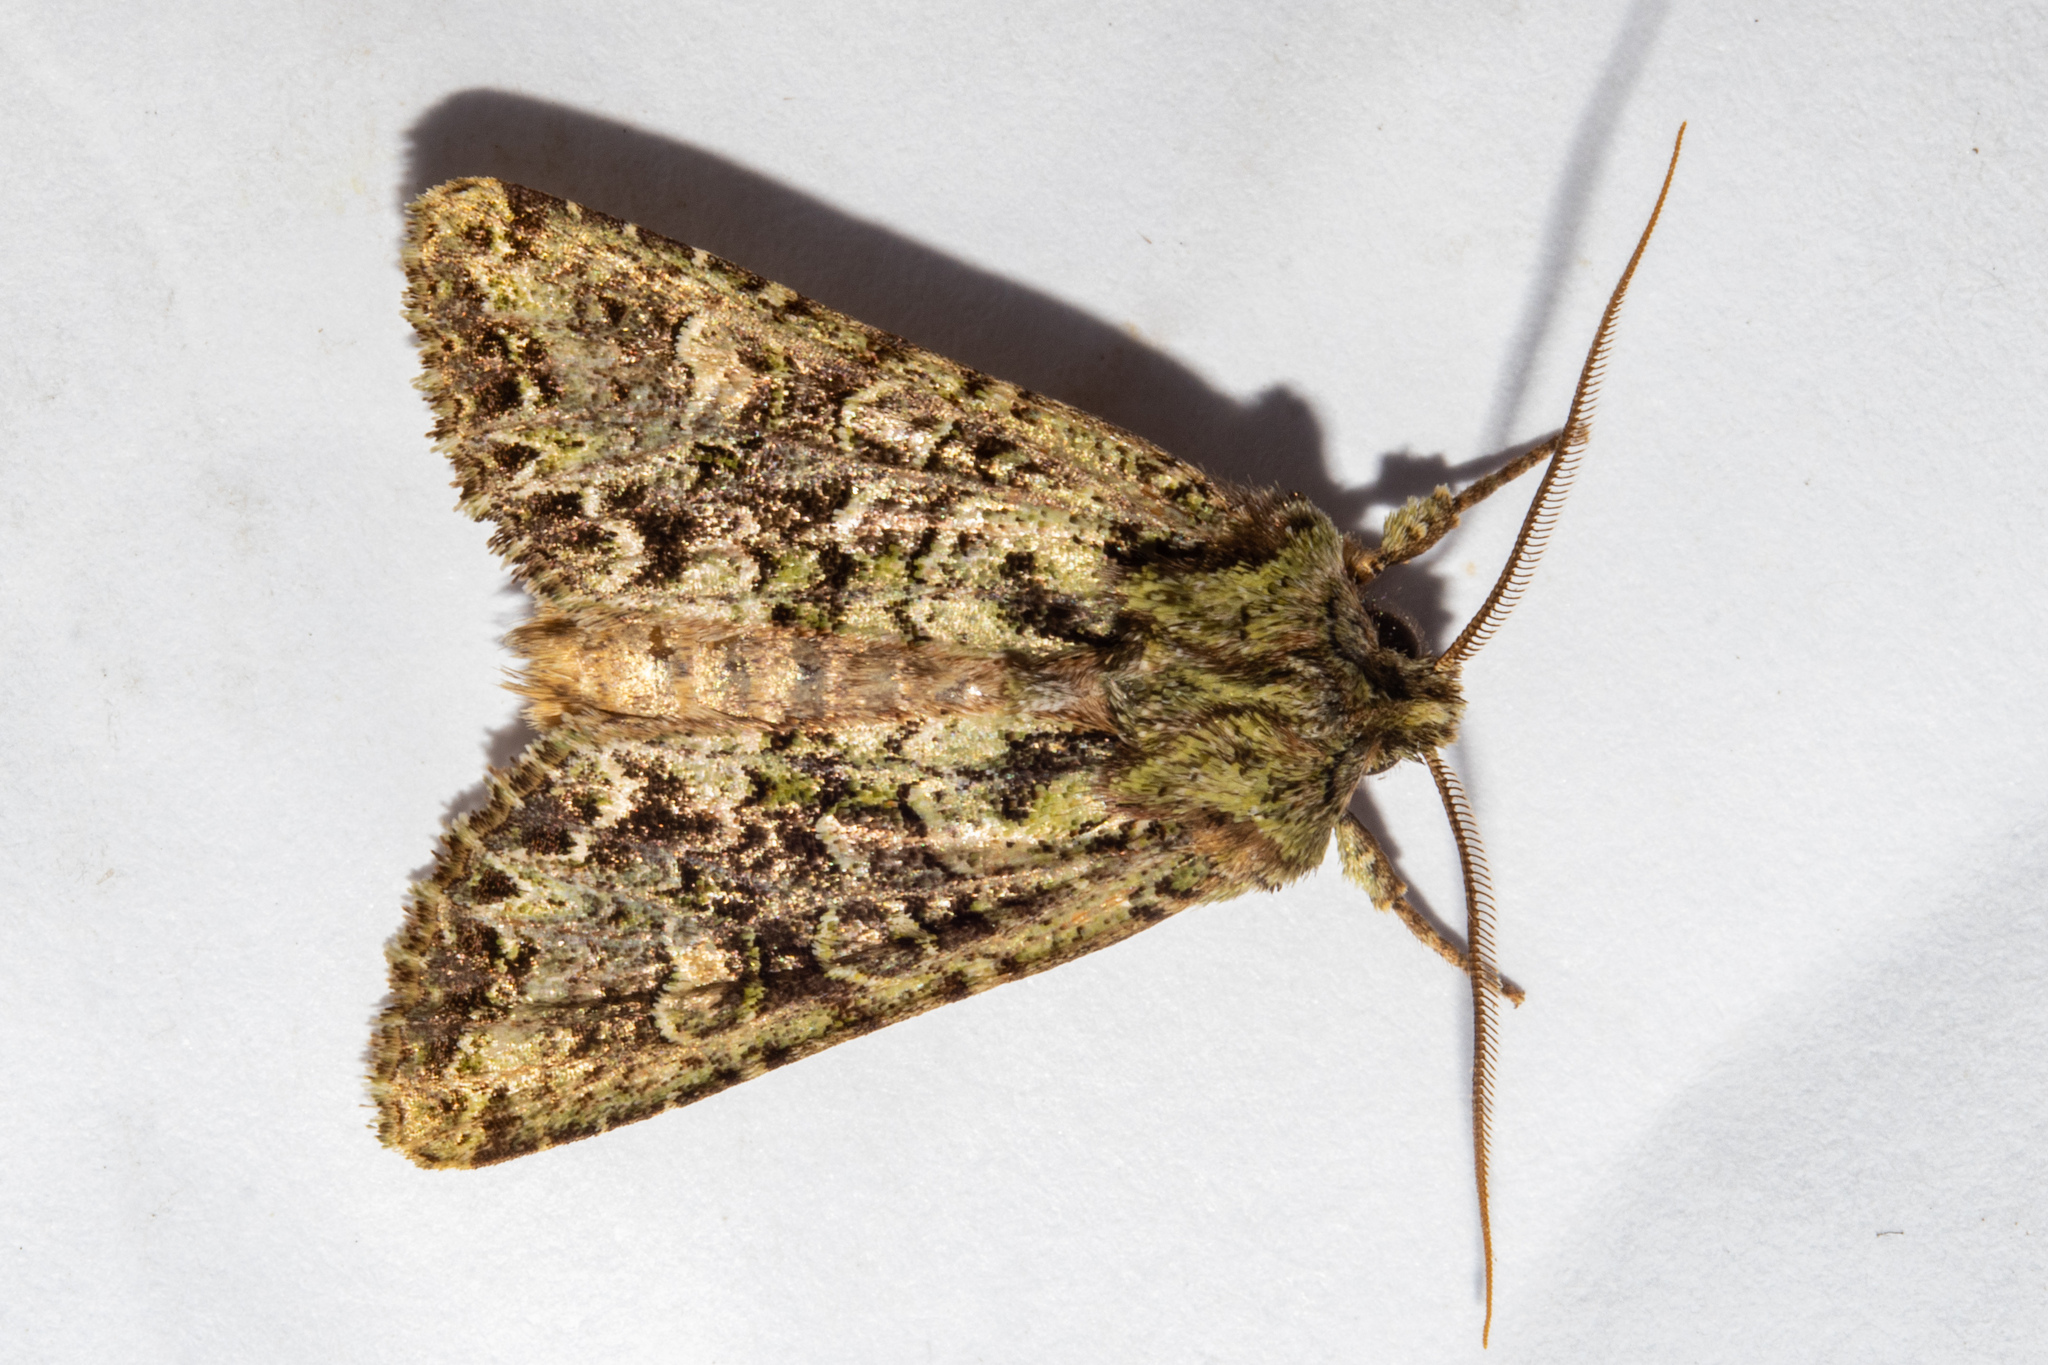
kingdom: Animalia
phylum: Arthropoda
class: Insecta
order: Lepidoptera
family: Noctuidae
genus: Ichneutica
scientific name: Ichneutica
